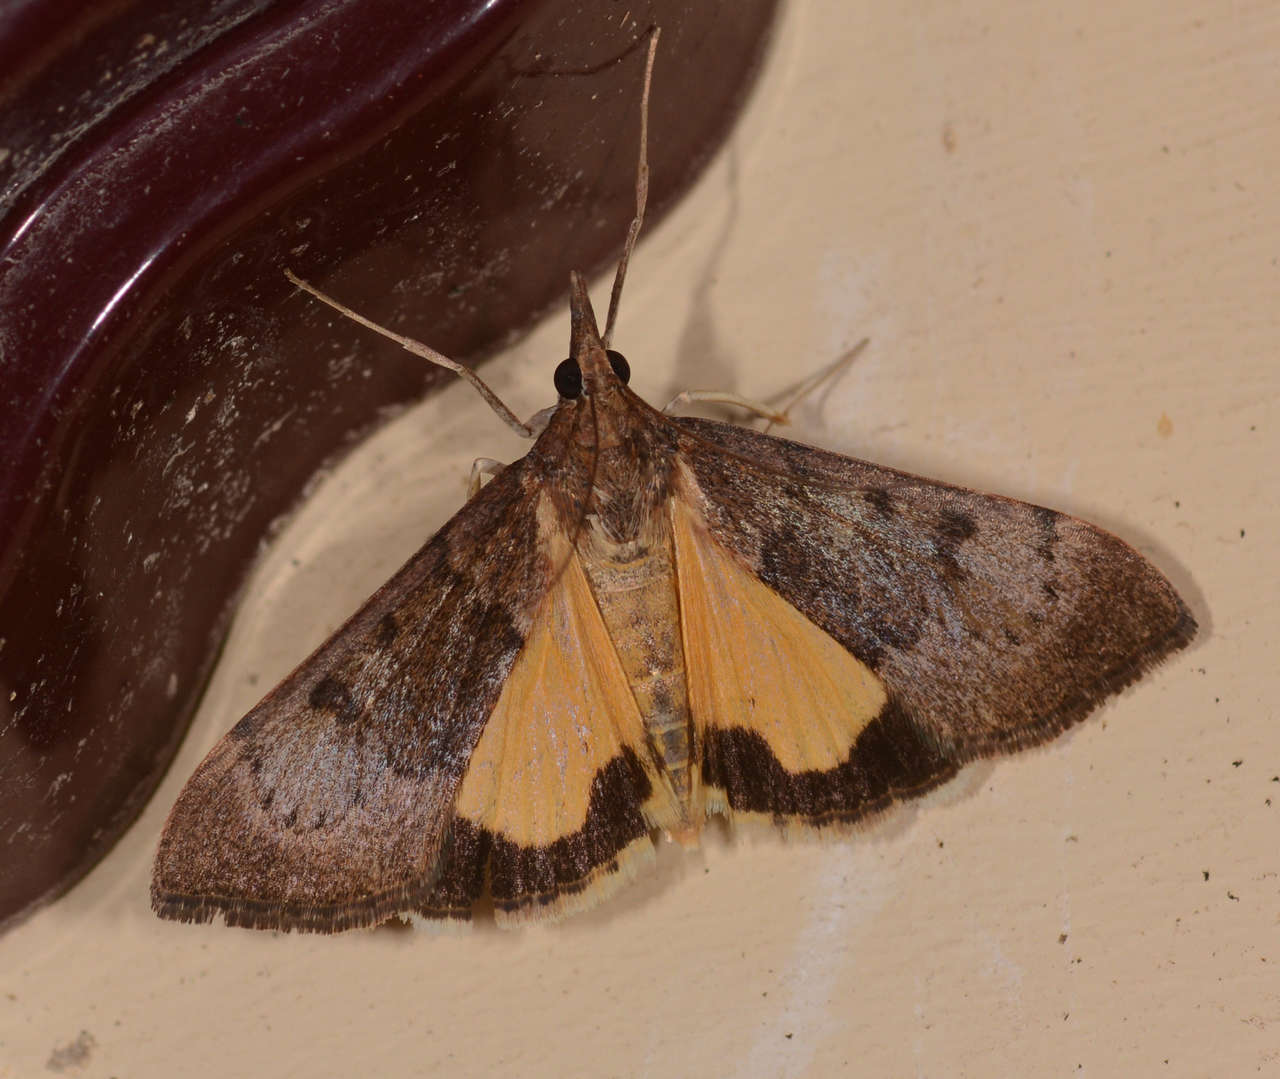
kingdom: Animalia
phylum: Arthropoda
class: Insecta
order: Lepidoptera
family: Crambidae
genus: Uresiphita
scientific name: Uresiphita ornithopteralis
